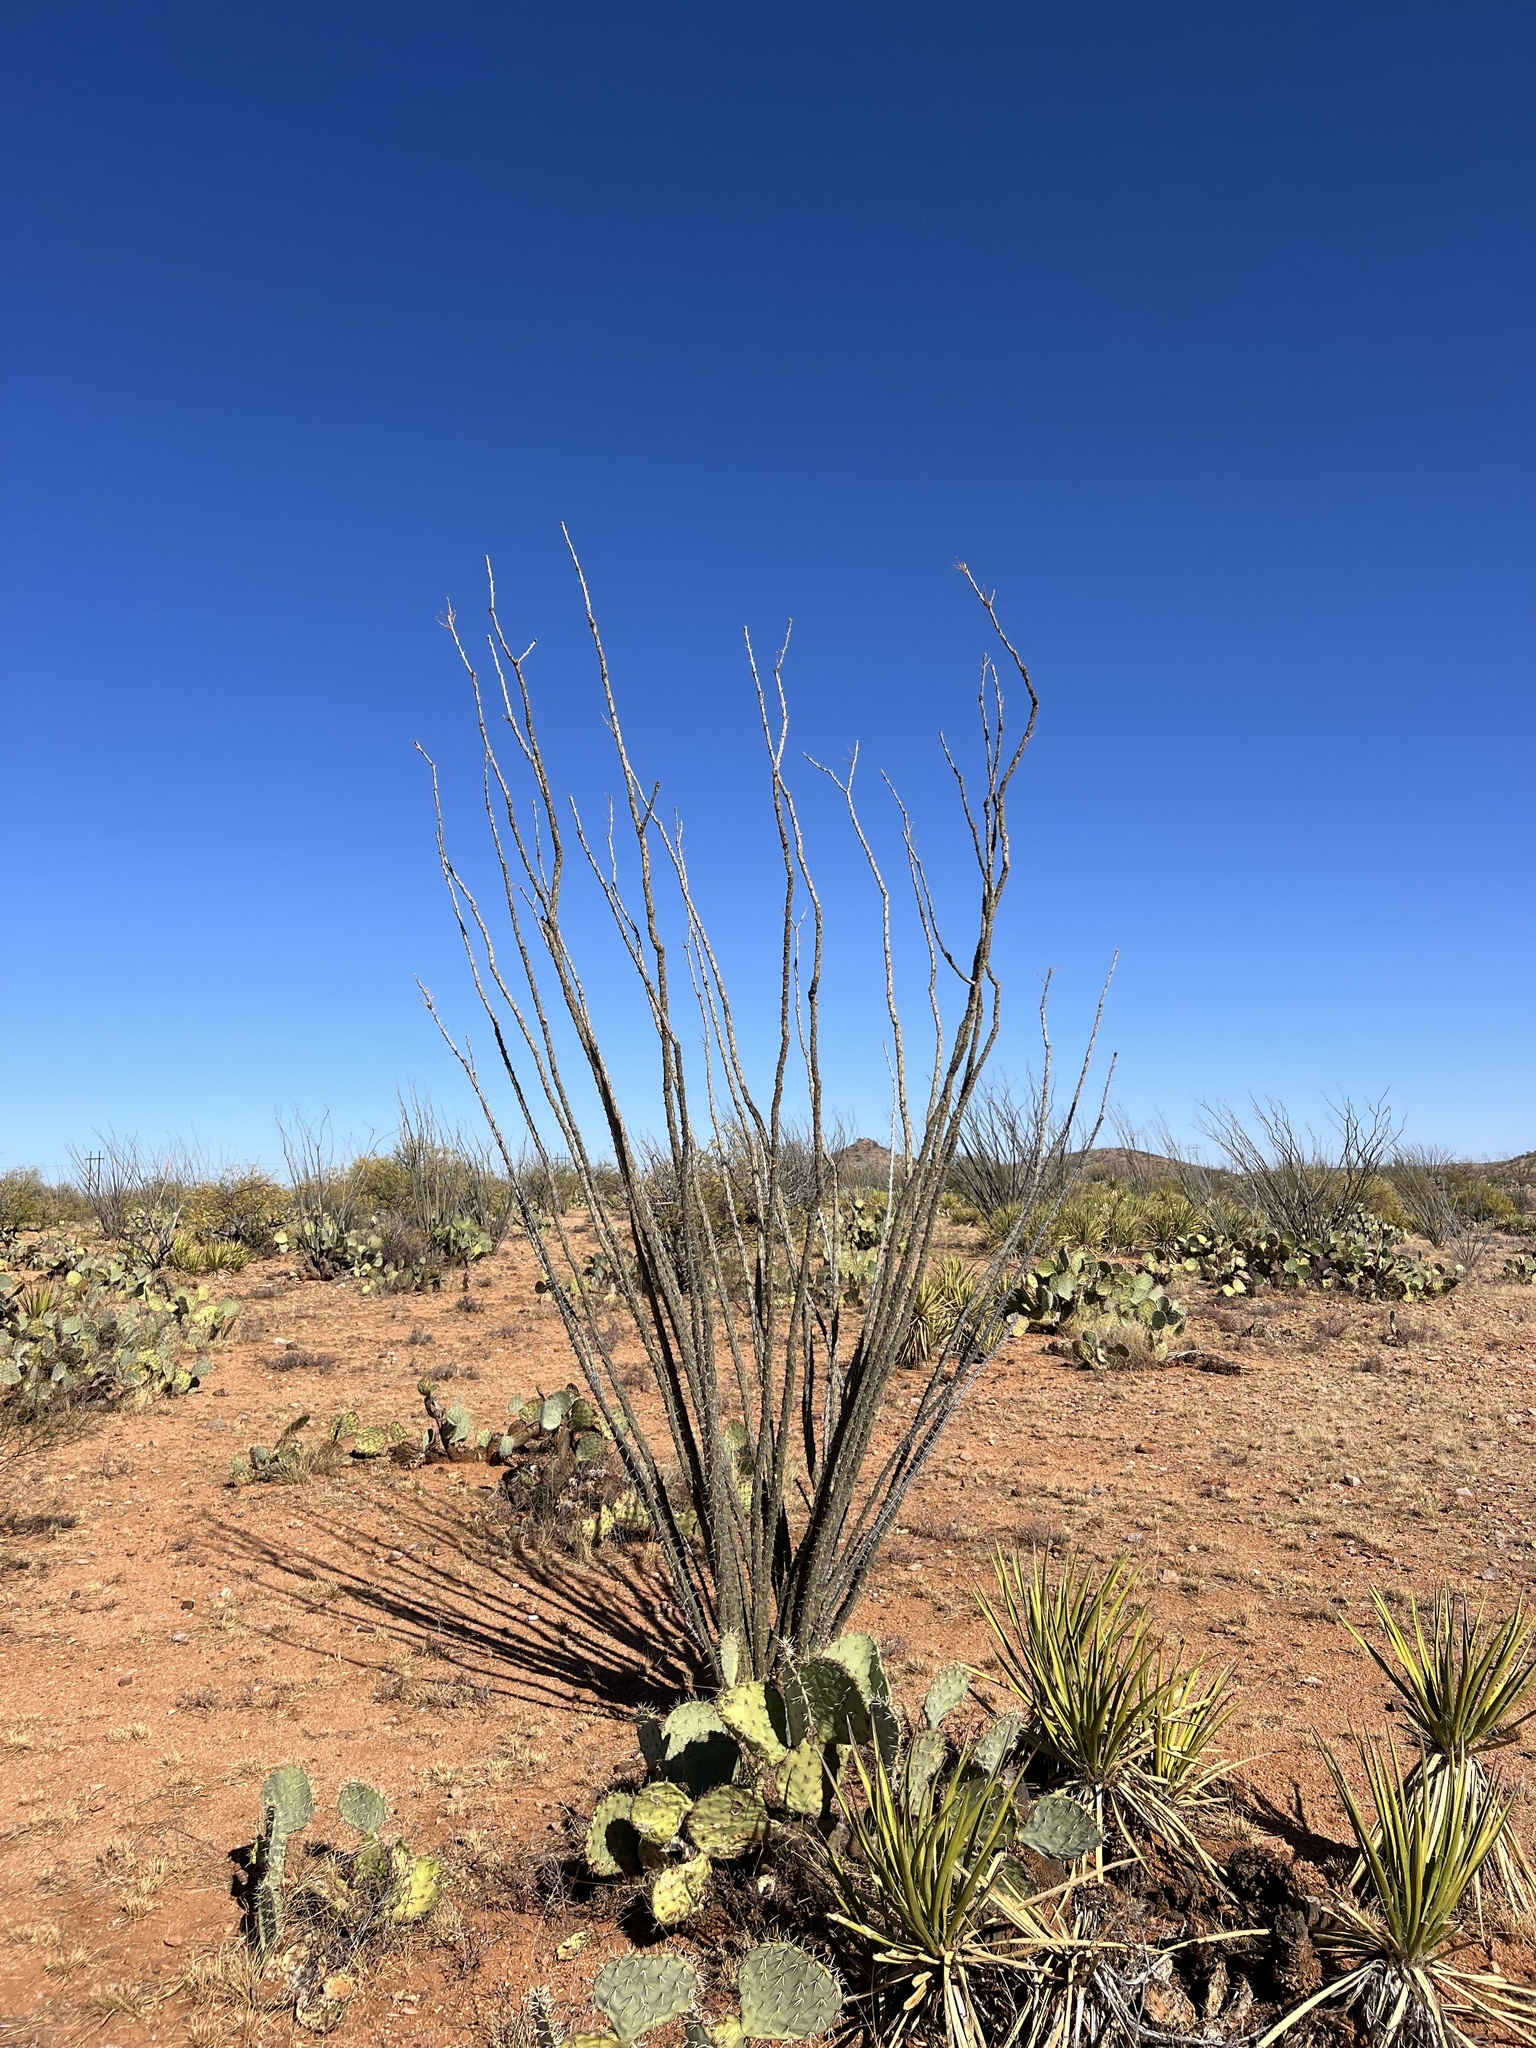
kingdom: Plantae
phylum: Tracheophyta
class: Magnoliopsida
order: Ericales
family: Fouquieriaceae
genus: Fouquieria
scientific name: Fouquieria splendens
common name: Vine-cactus
